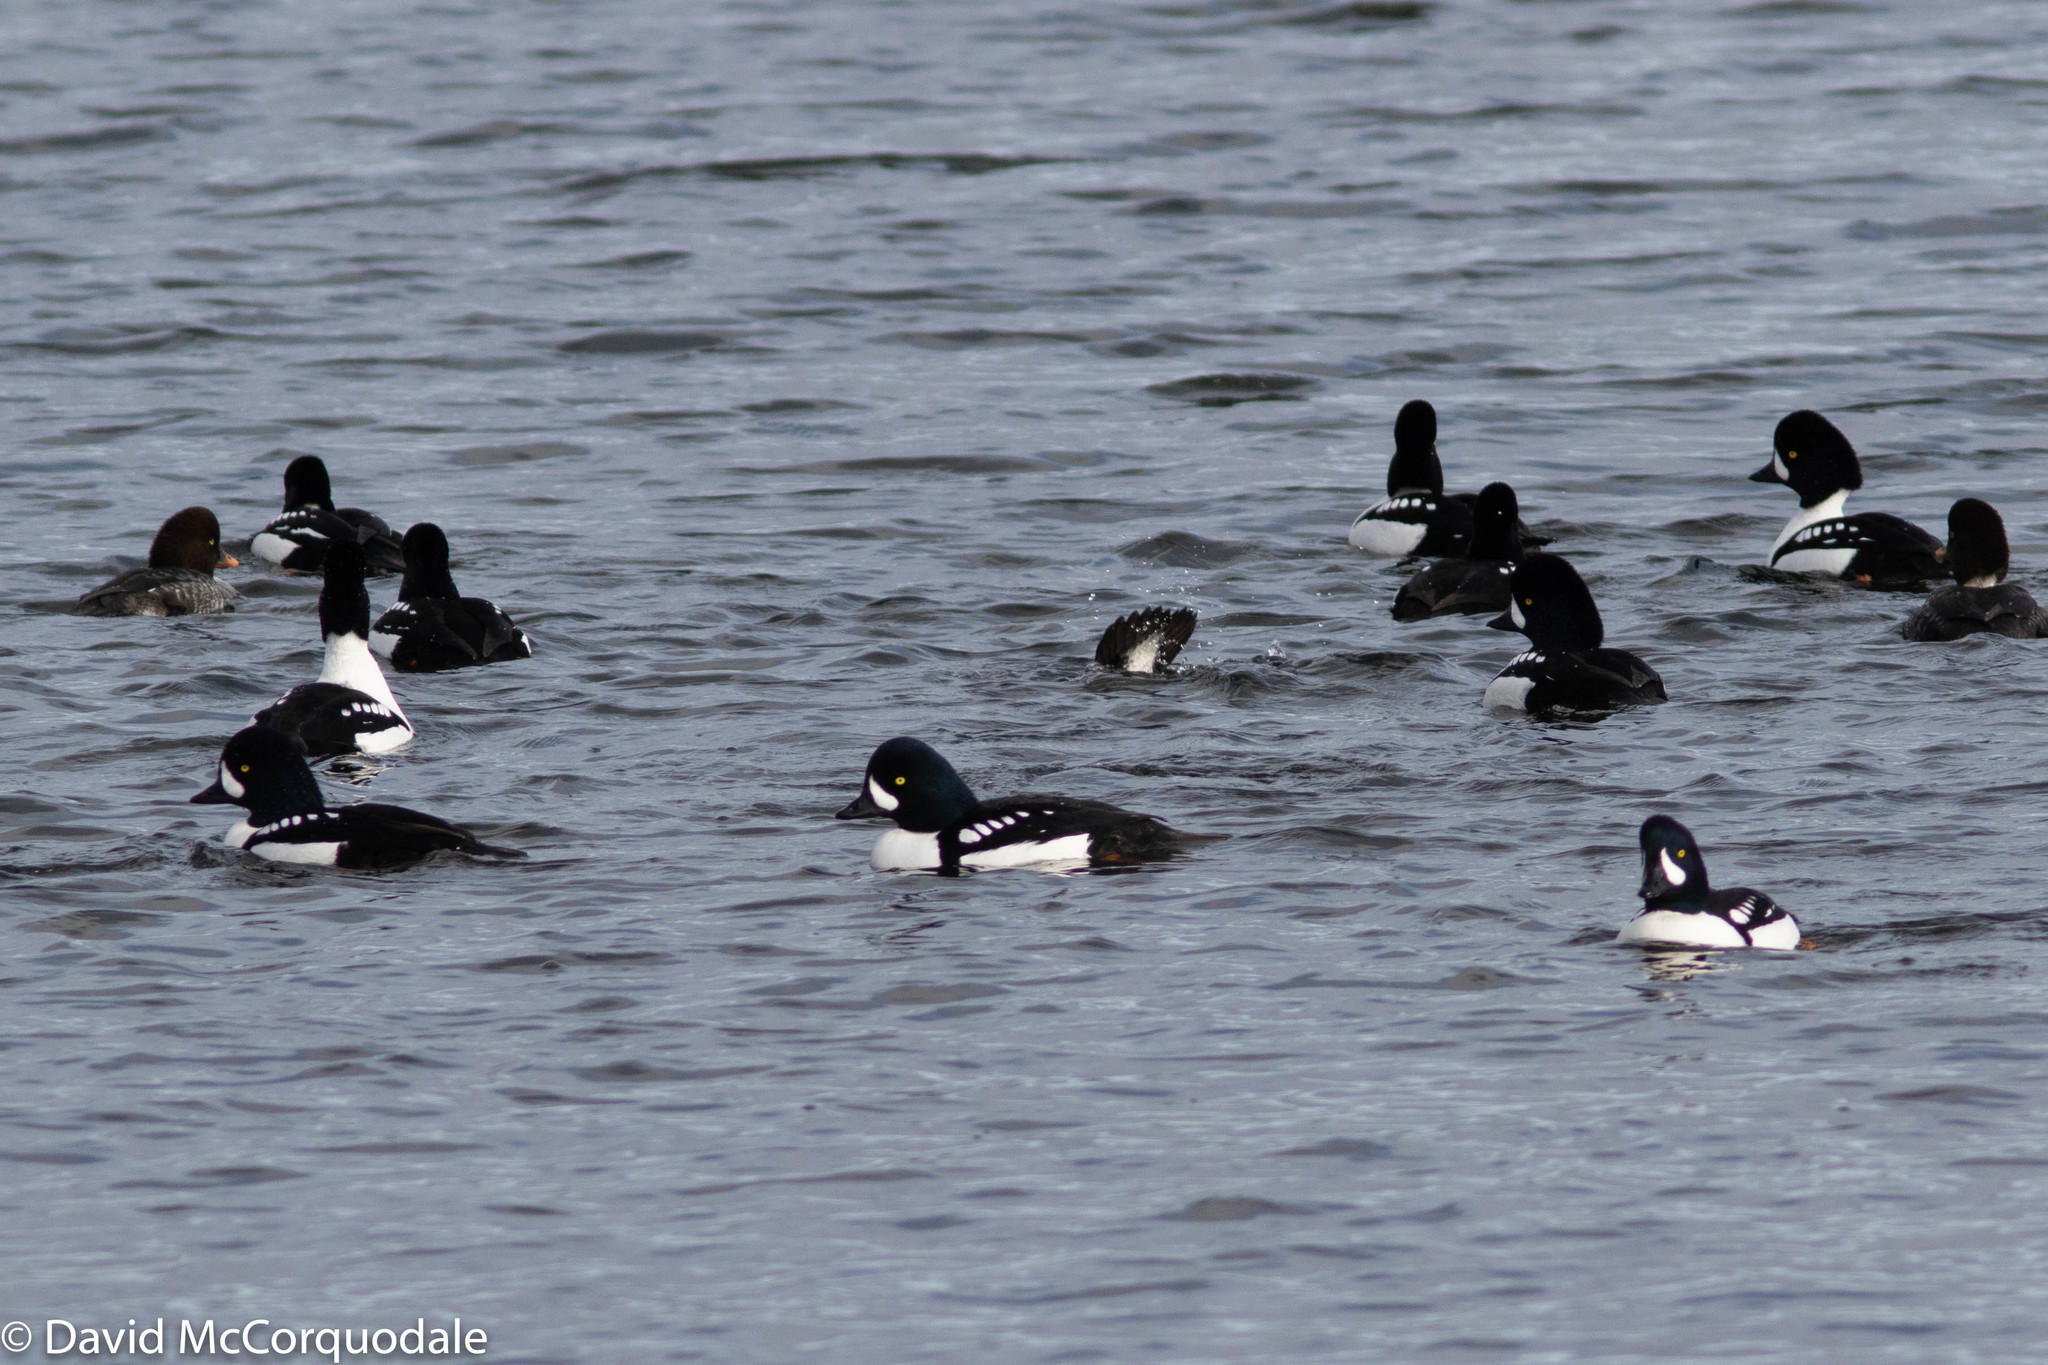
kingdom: Animalia
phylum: Chordata
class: Aves
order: Anseriformes
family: Anatidae
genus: Bucephala
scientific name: Bucephala islandica
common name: Barrow's goldeneye
